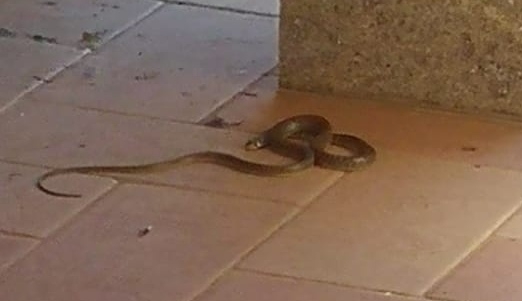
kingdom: Animalia
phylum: Chordata
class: Squamata
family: Colubridae
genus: Zamenis
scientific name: Zamenis longissimus
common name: Aesculapean snake
